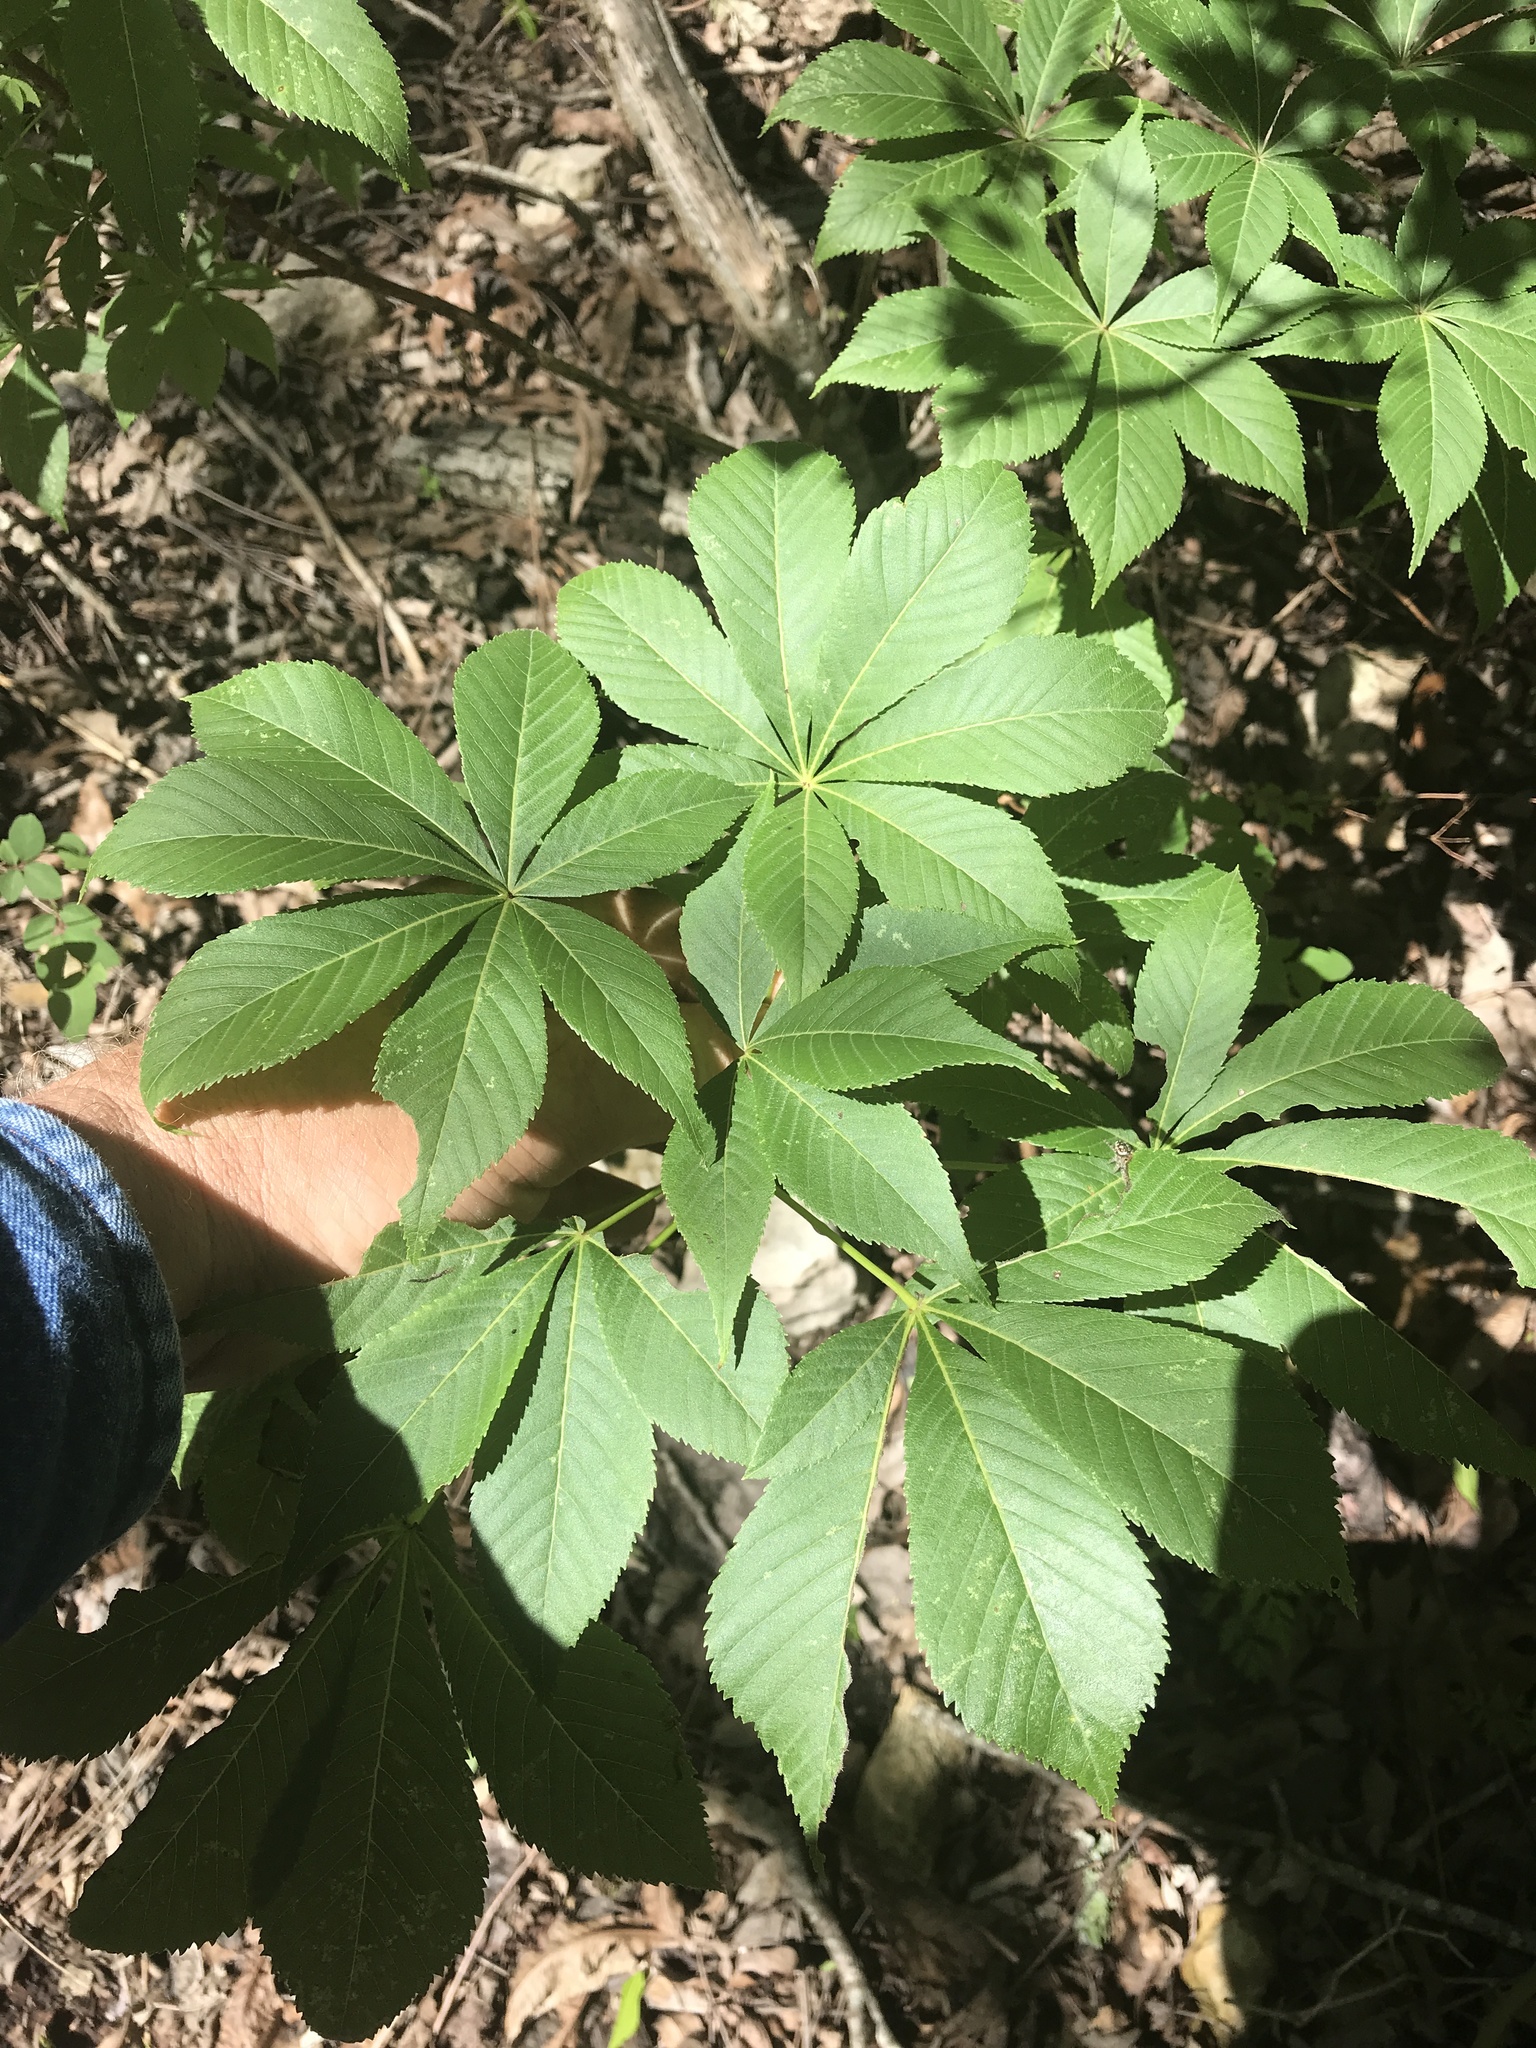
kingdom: Plantae
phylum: Tracheophyta
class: Magnoliopsida
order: Sapindales
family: Sapindaceae
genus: Aesculus
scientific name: Aesculus glabra
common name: Ohio buckeye
